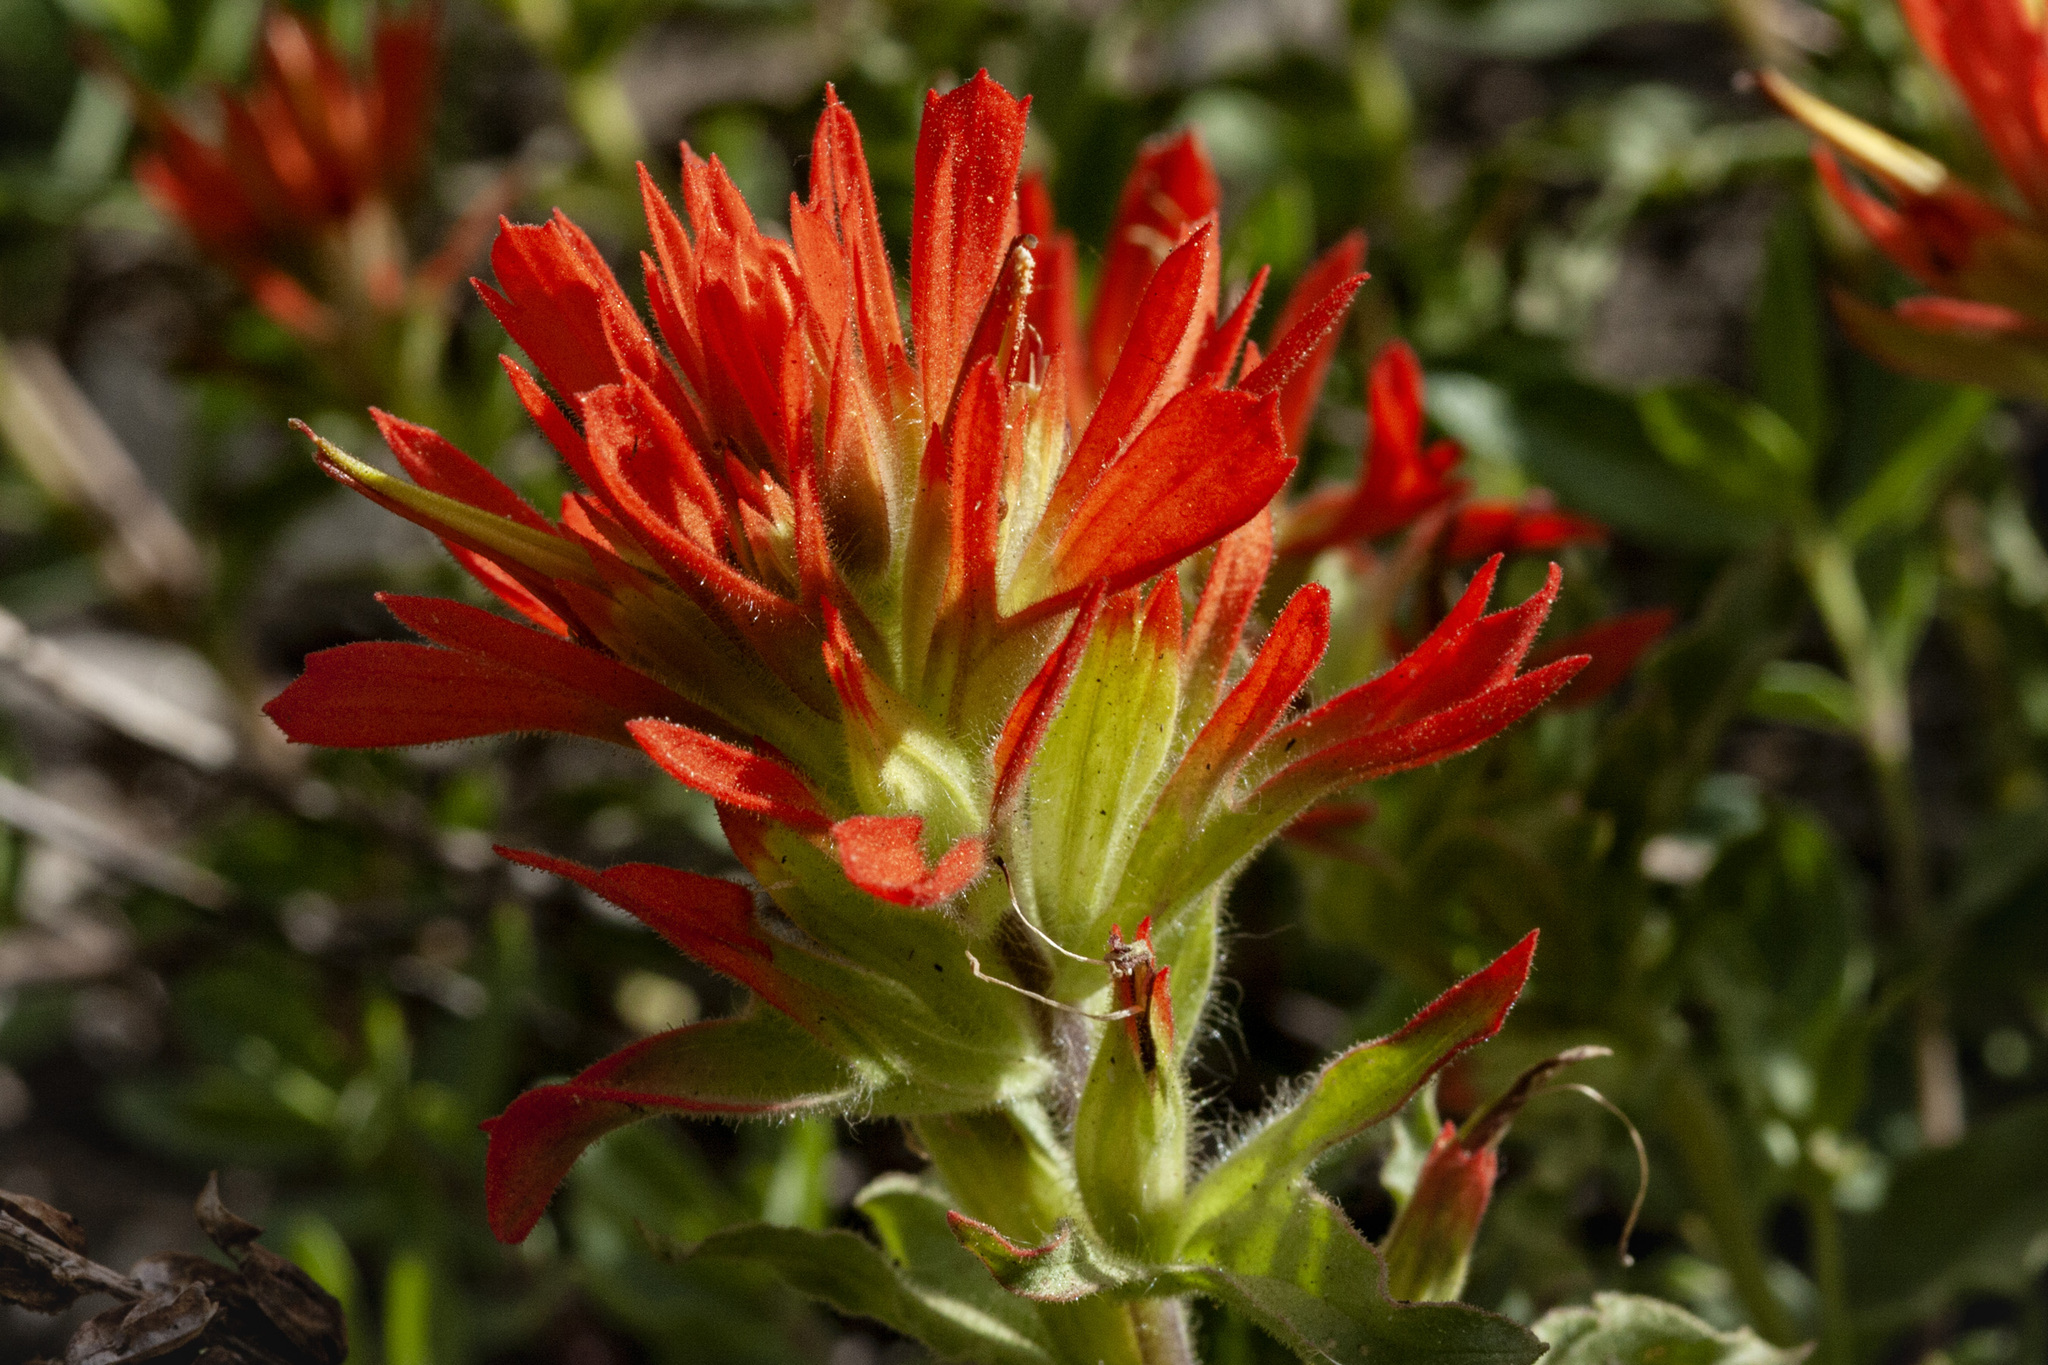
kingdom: Plantae
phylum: Tracheophyta
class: Magnoliopsida
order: Lamiales
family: Orobanchaceae
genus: Castilleja
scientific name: Castilleja applegatei
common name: Wavy-leaf paintbrush
